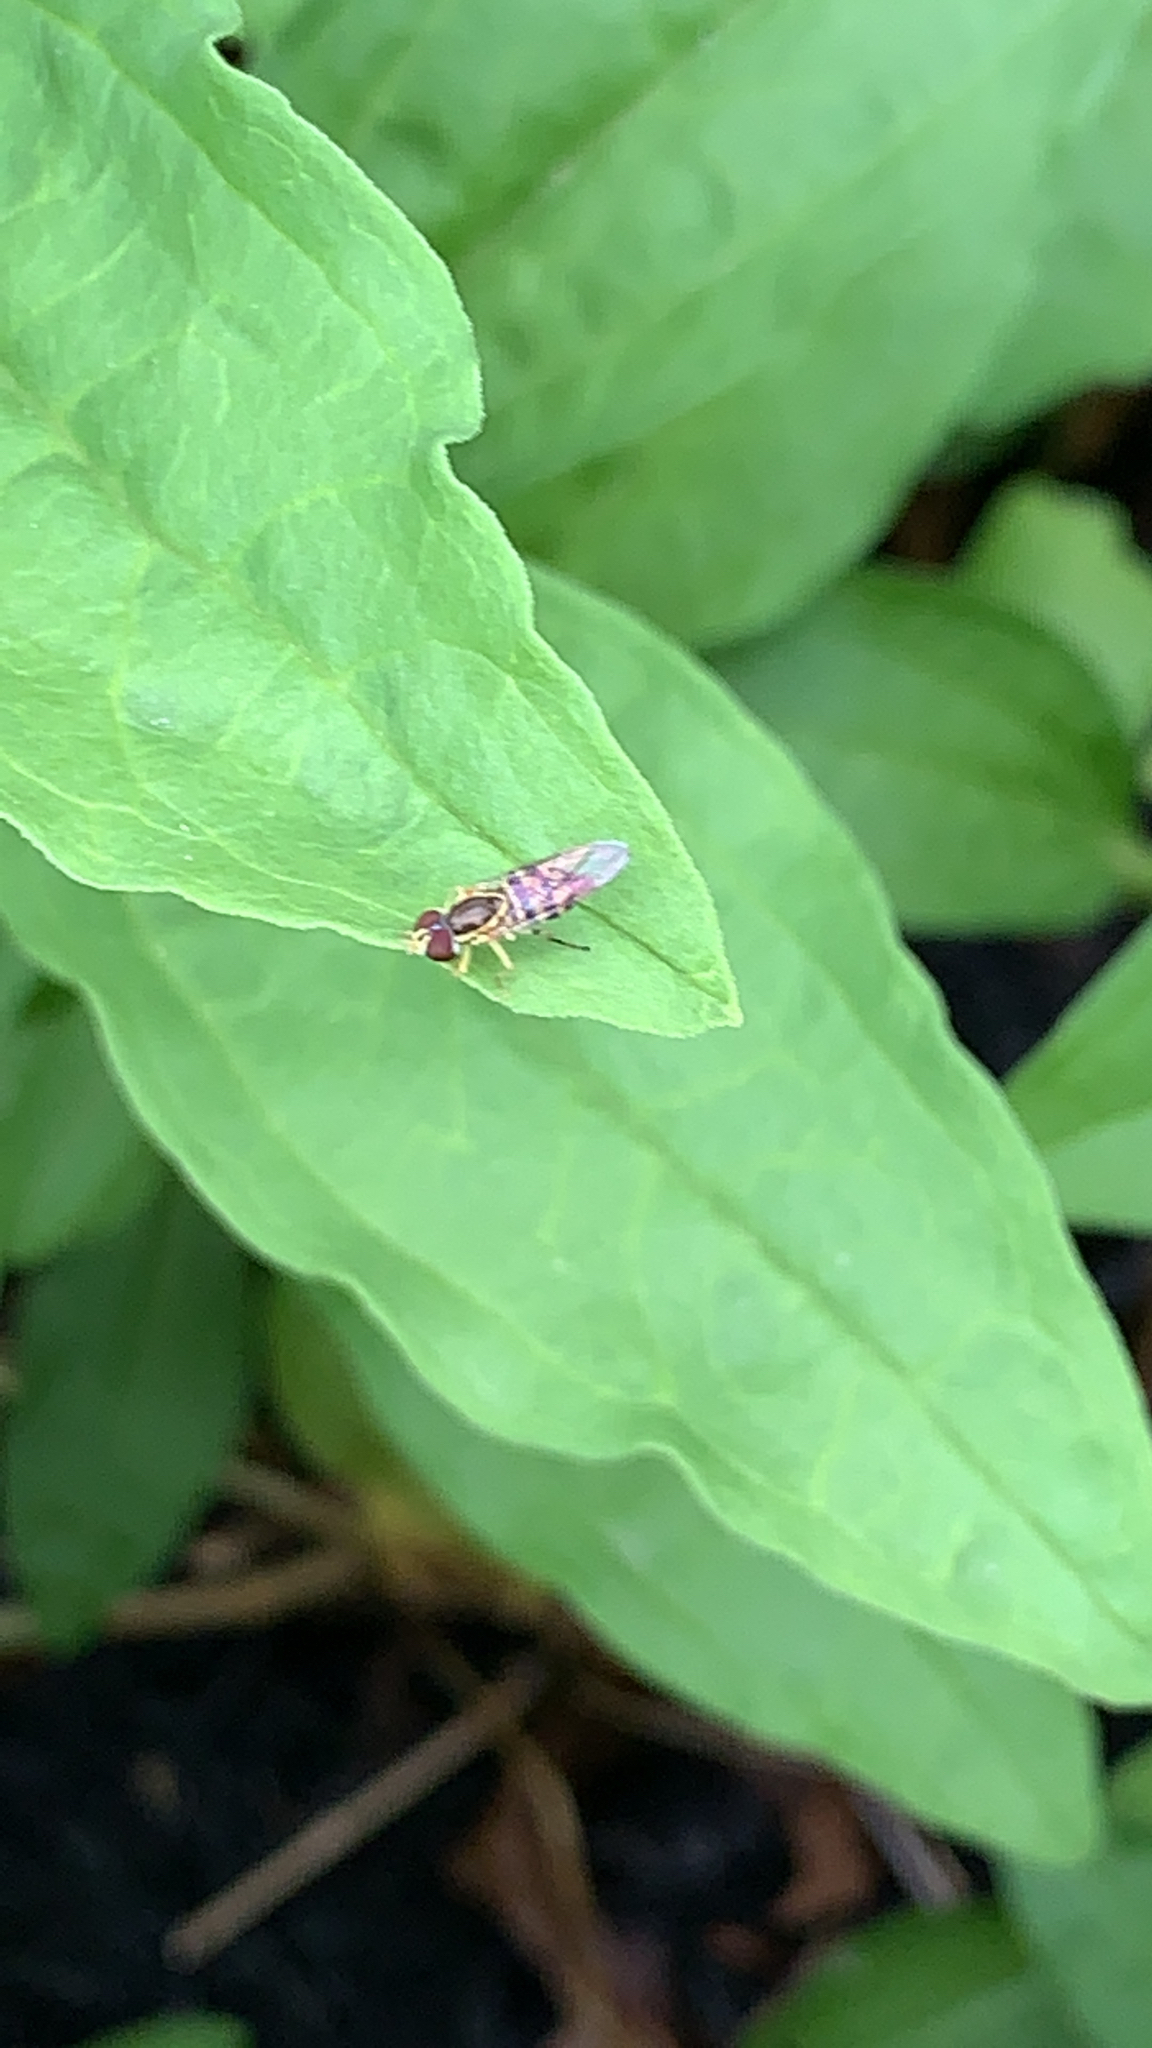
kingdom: Animalia
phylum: Arthropoda
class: Insecta
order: Diptera
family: Syrphidae
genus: Toxomerus
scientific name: Toxomerus geminatus
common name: Eastern calligrapher
